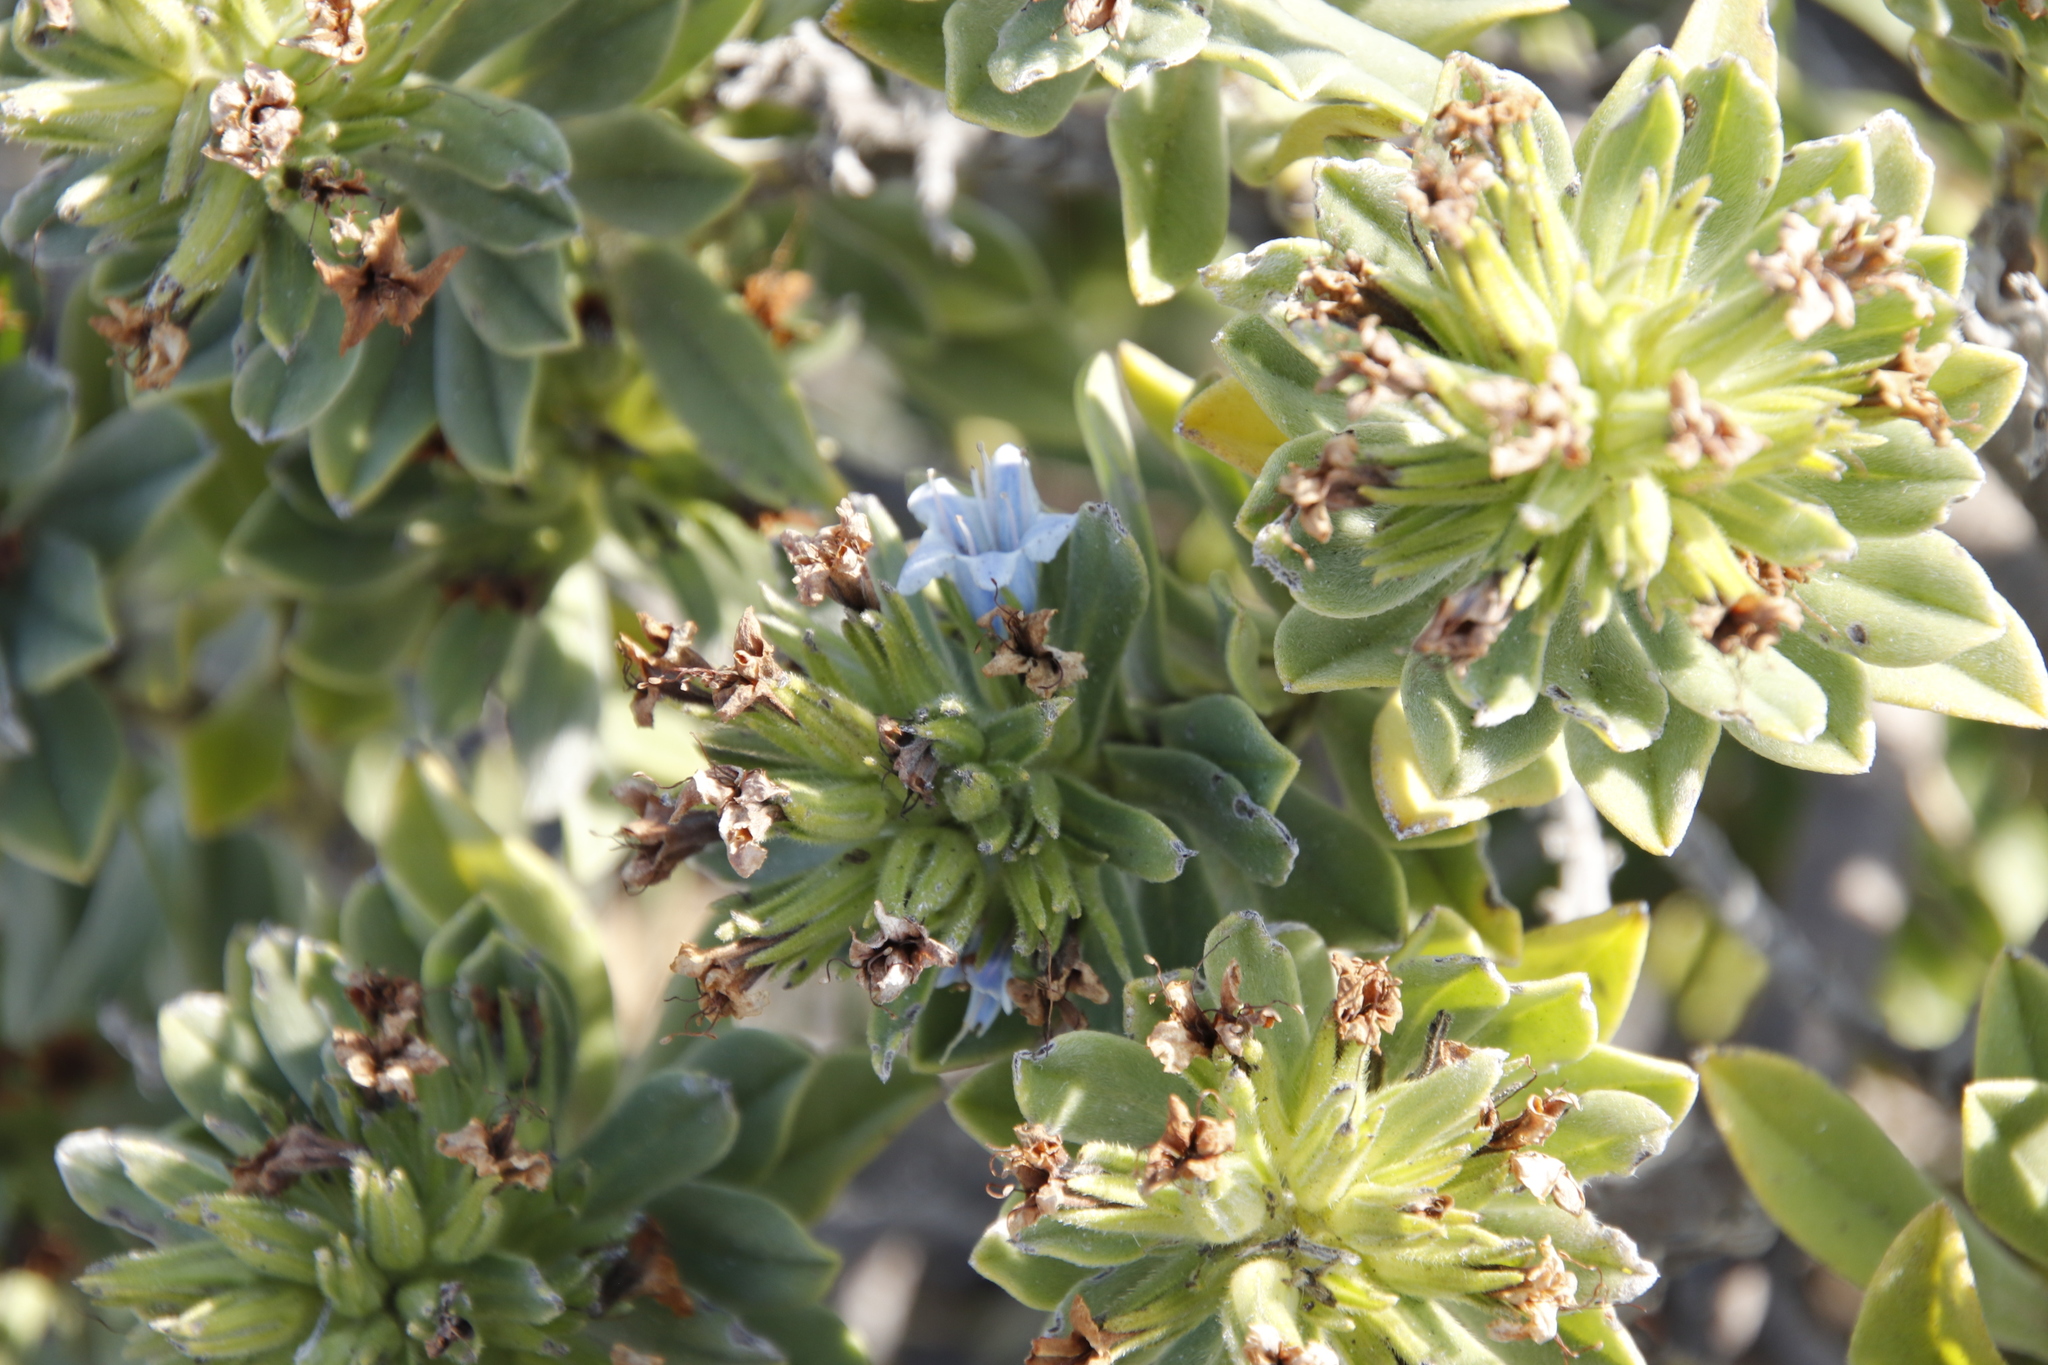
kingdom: Plantae
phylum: Tracheophyta
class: Magnoliopsida
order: Boraginales
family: Boraginaceae
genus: Lobostemon
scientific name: Lobostemon montanus
